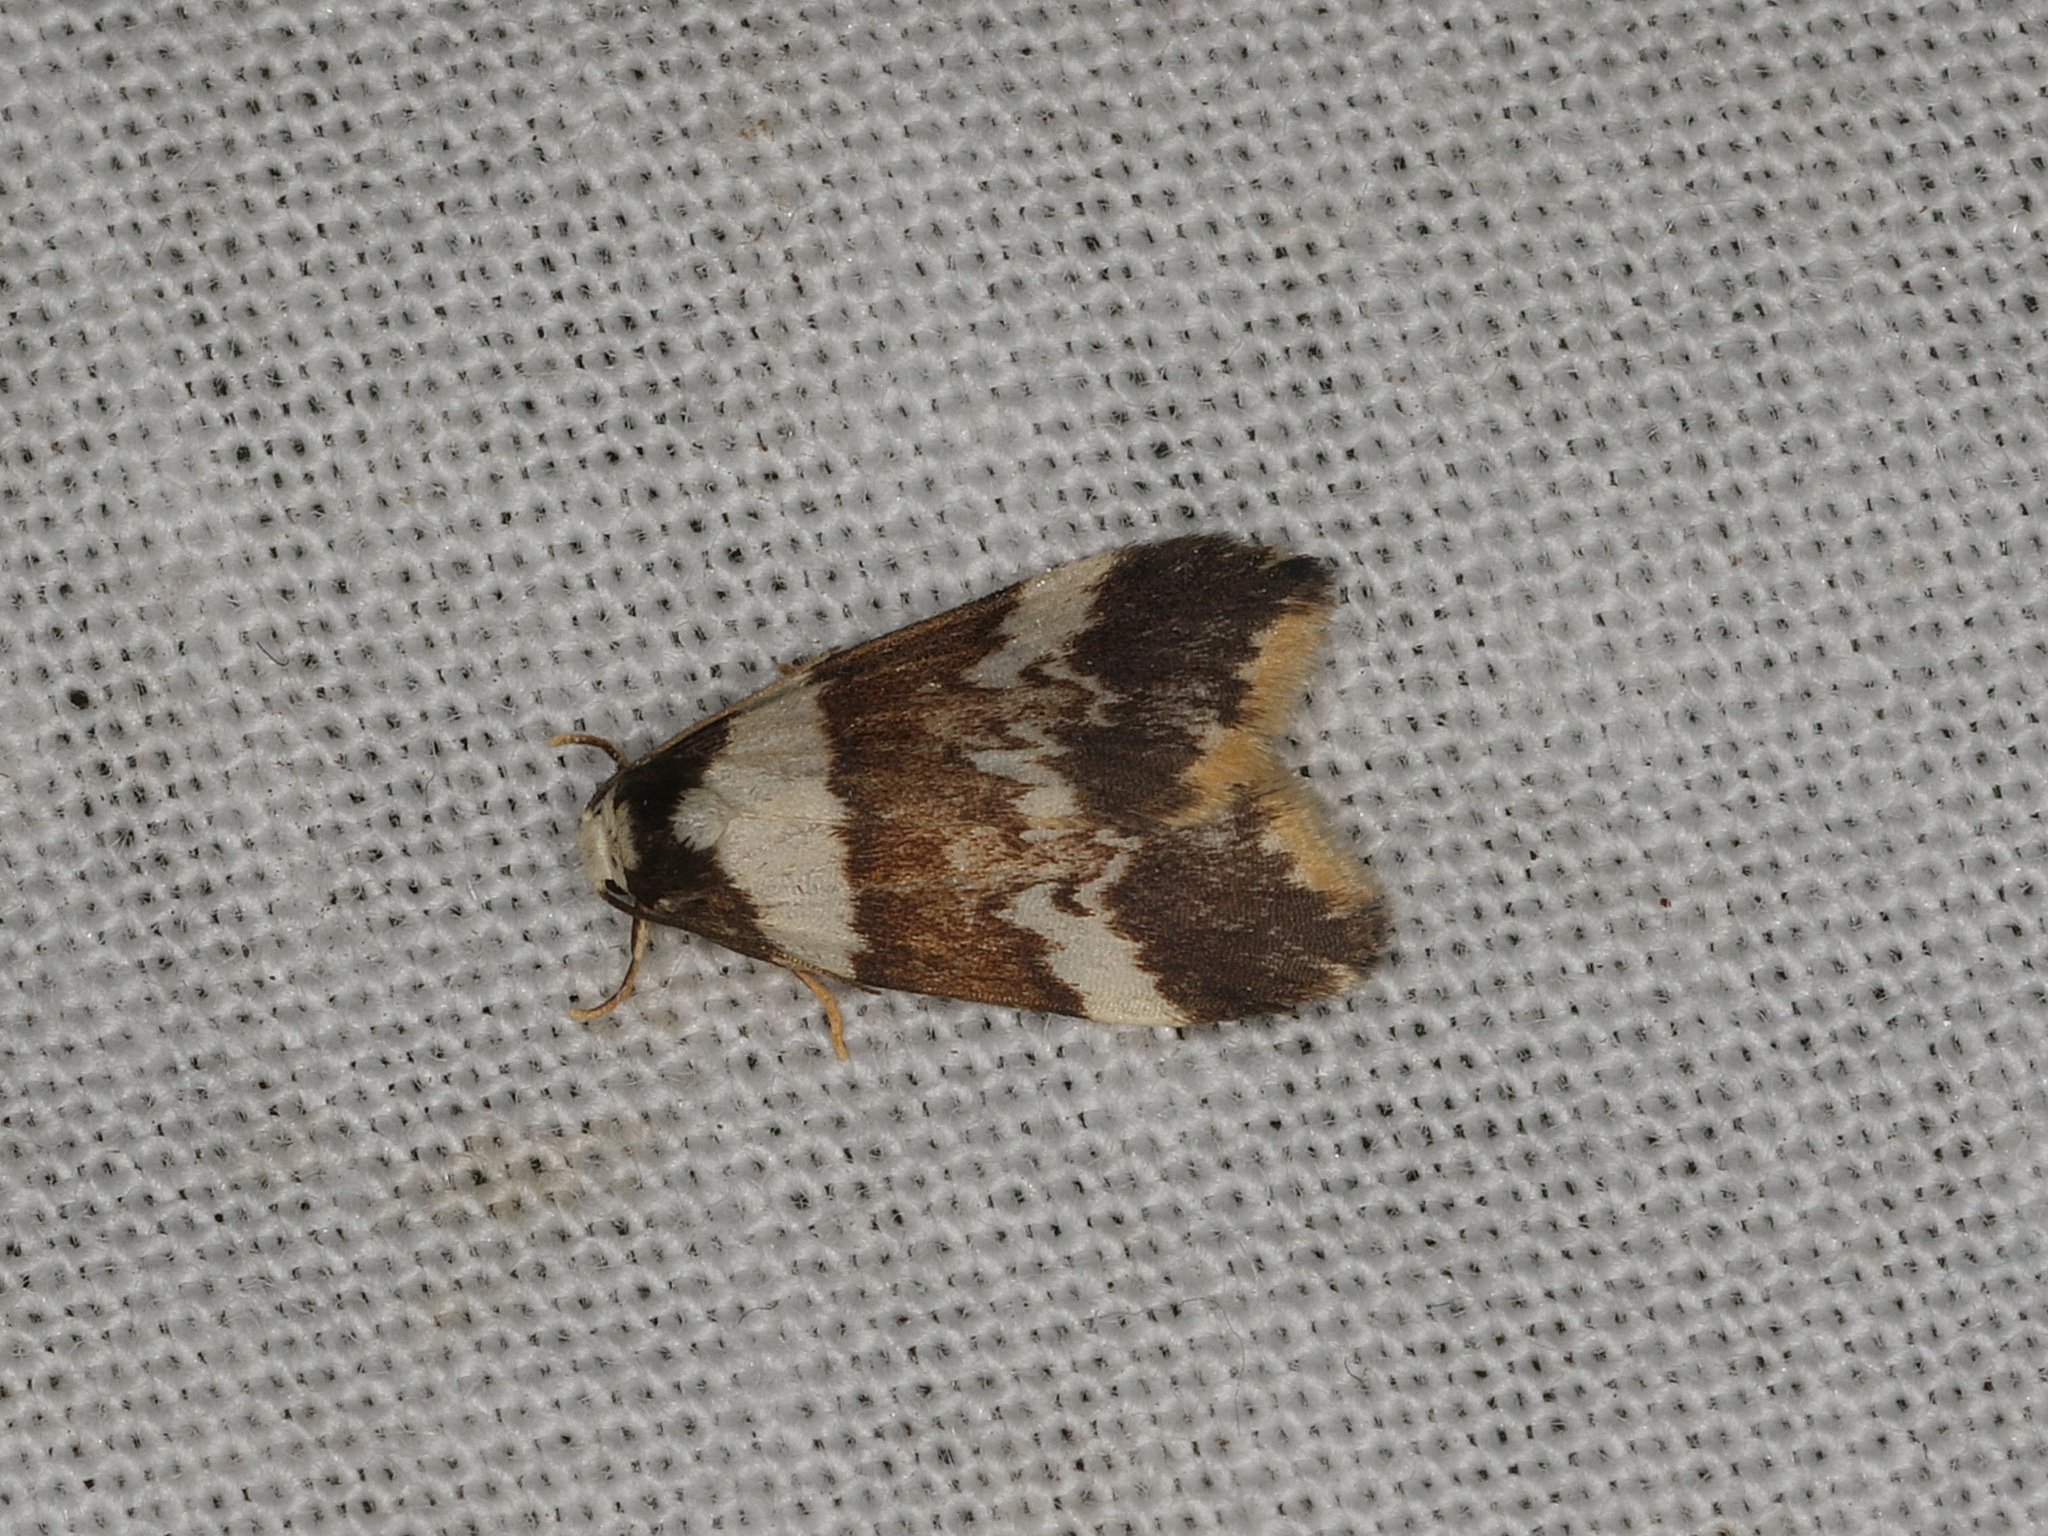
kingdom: Animalia
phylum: Arthropoda
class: Insecta
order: Lepidoptera
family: Erebidae
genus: Halone
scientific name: Halone sejuncta
